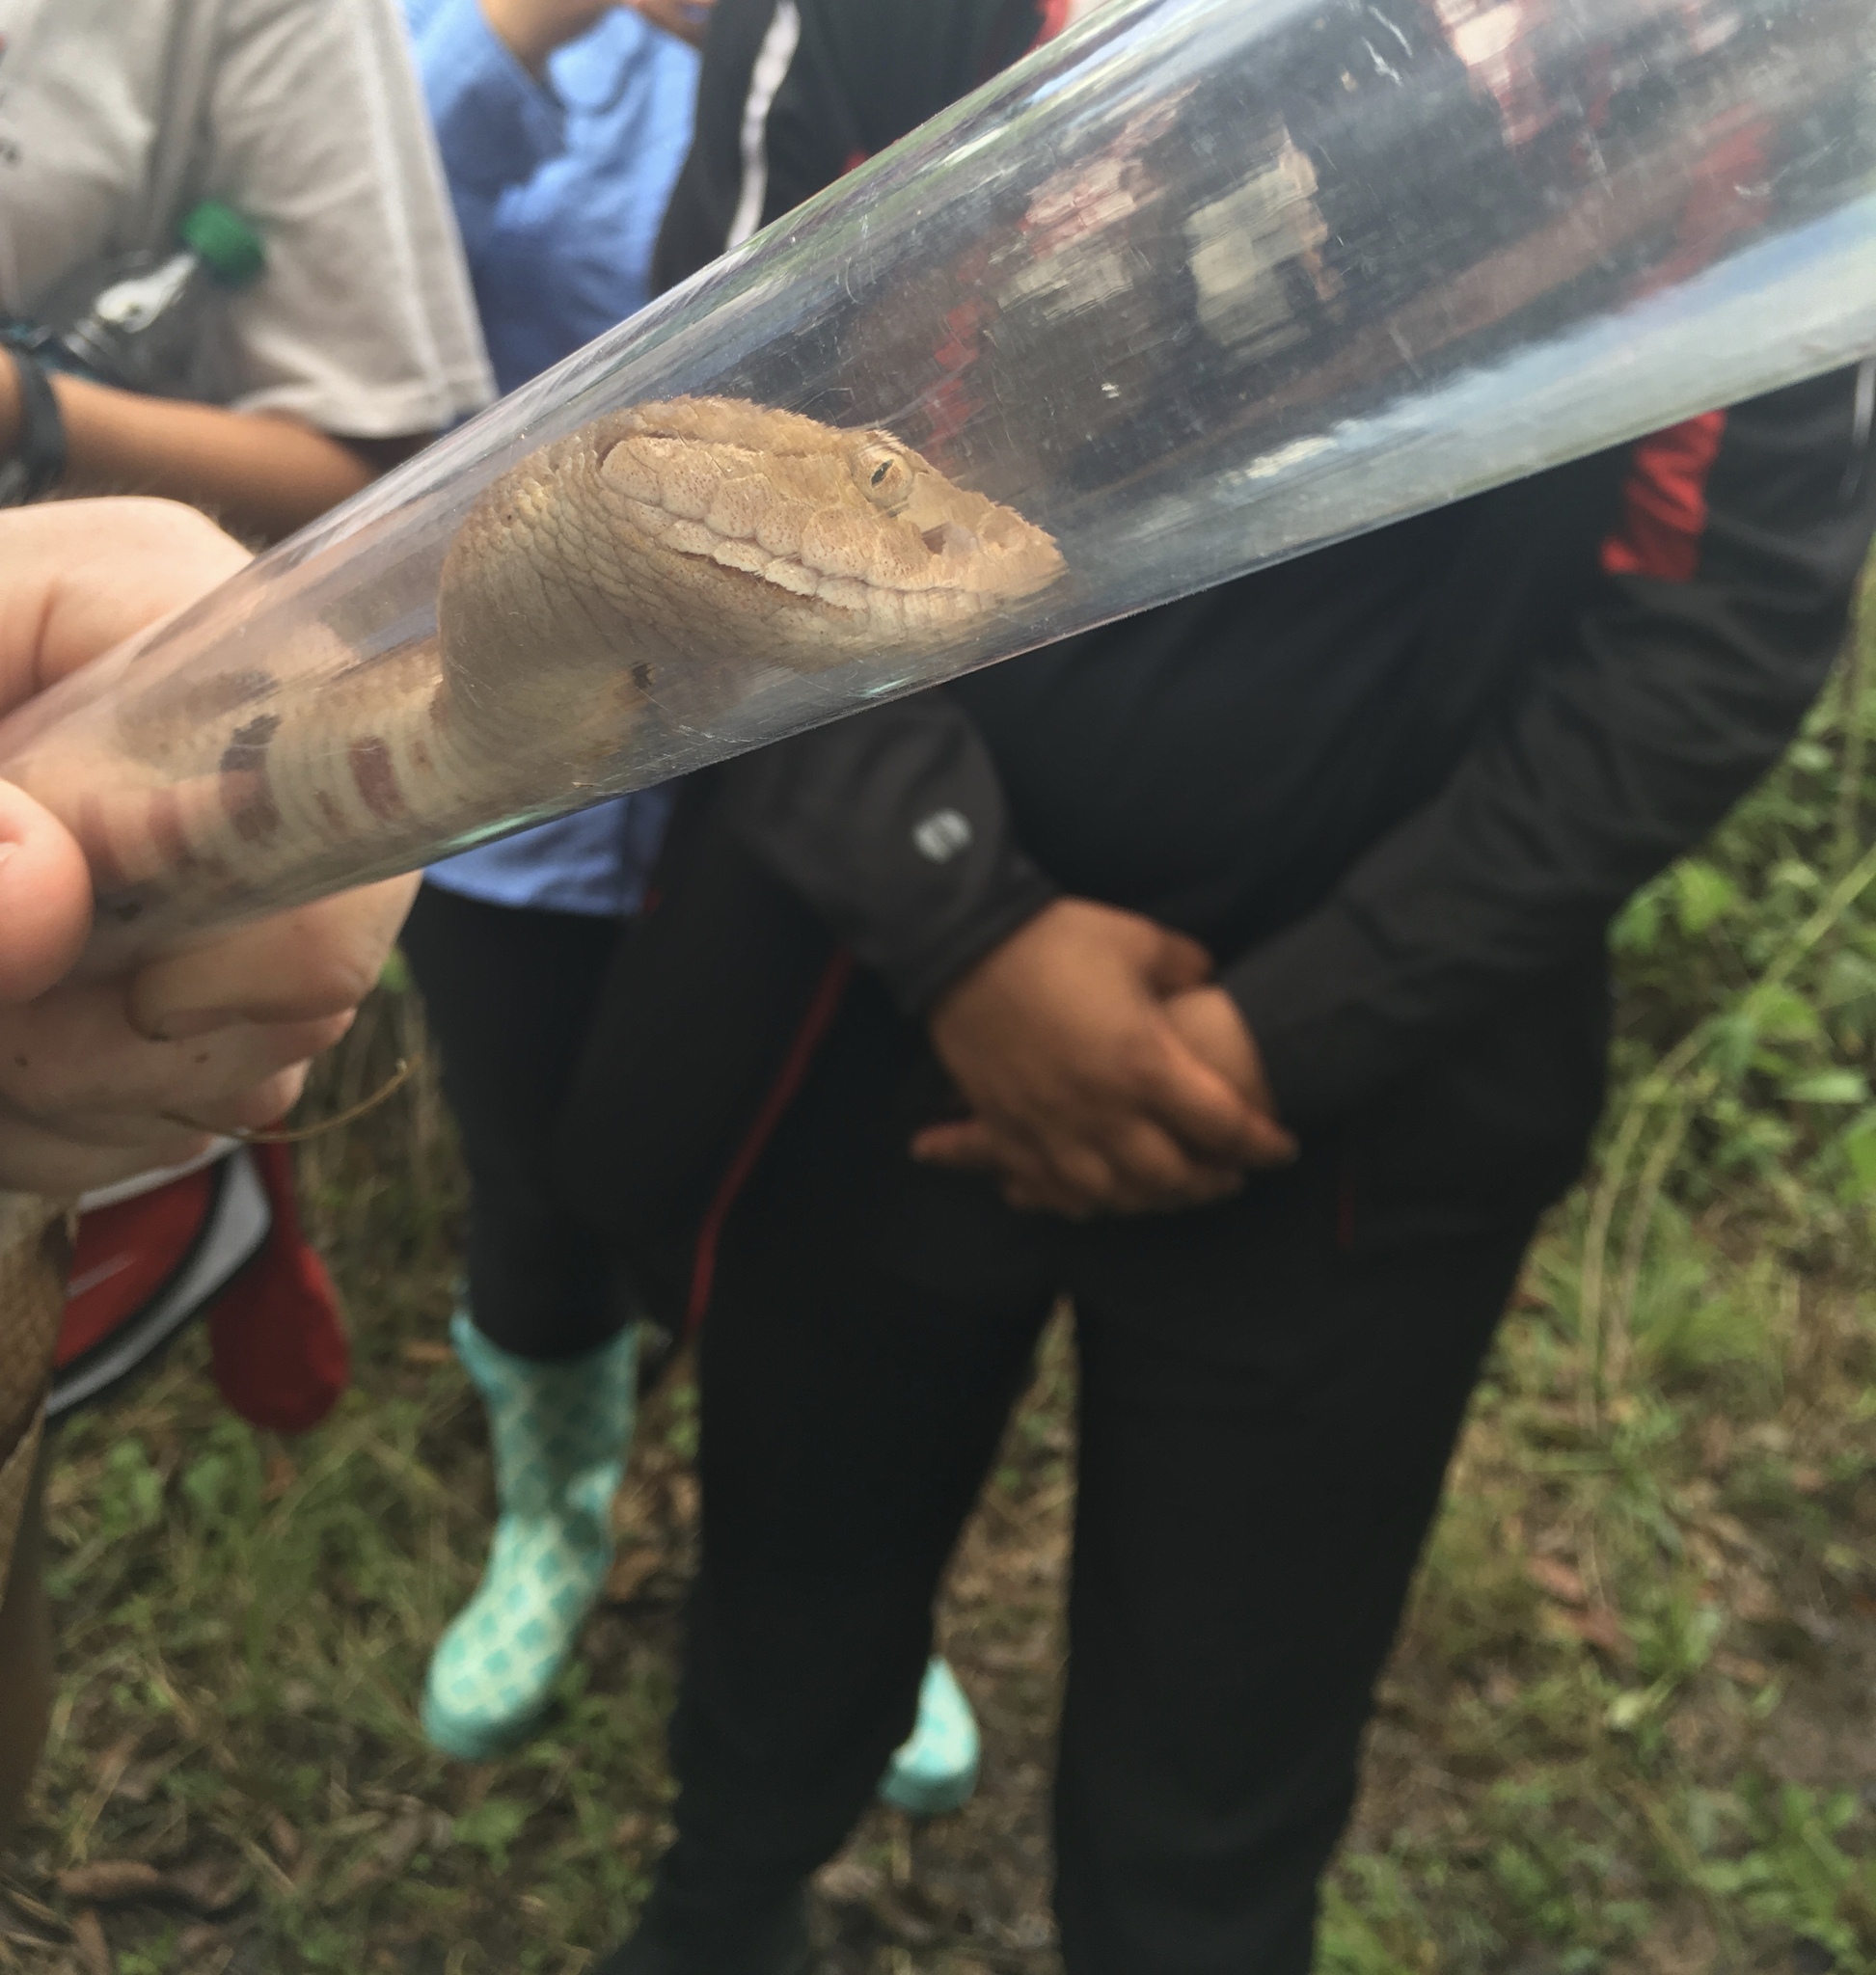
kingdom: Animalia
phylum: Chordata
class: Squamata
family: Viperidae
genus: Agkistrodon
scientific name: Agkistrodon contortrix
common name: Northern copperhead
